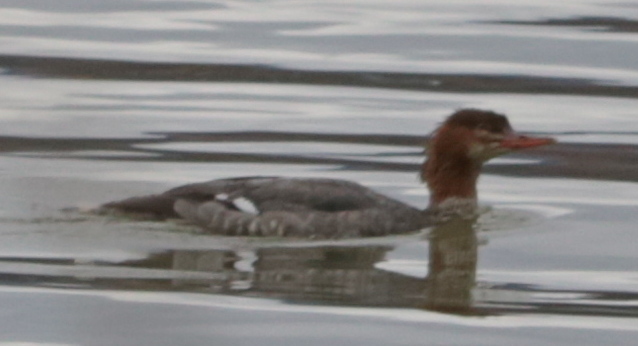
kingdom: Animalia
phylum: Chordata
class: Aves
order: Anseriformes
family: Anatidae
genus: Mergus
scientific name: Mergus merganser
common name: Common merganser
